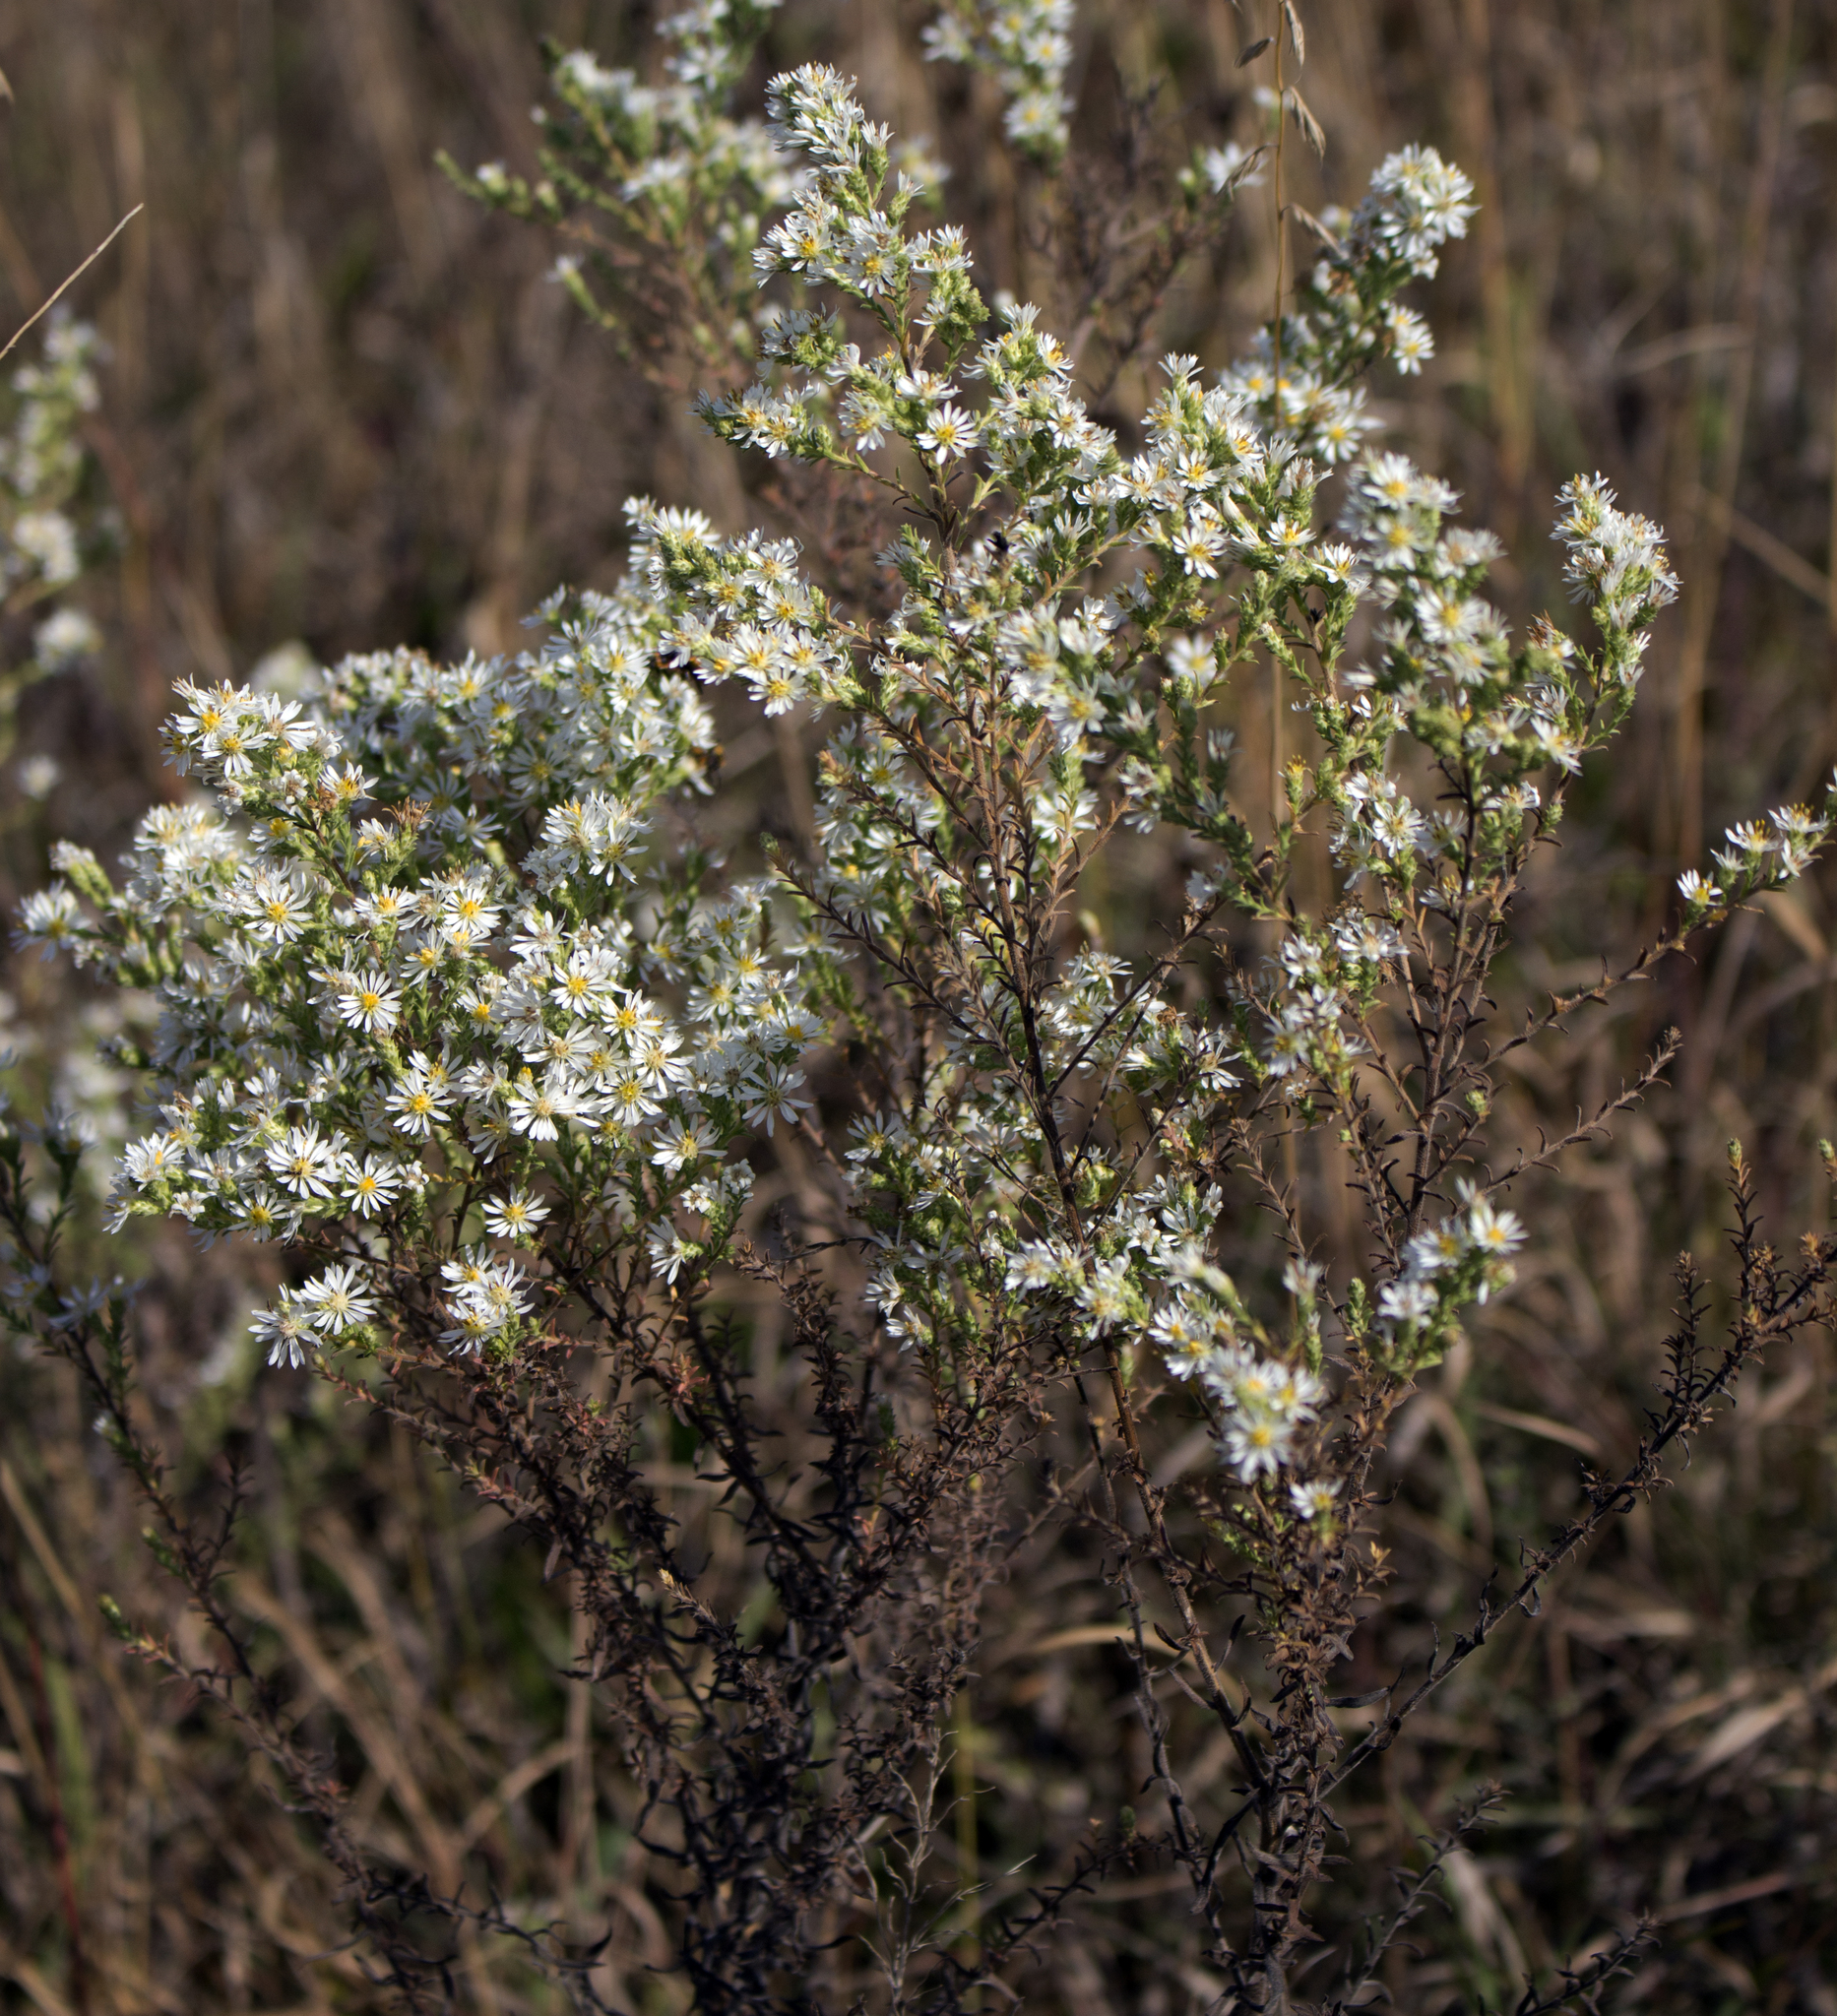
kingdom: Plantae
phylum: Tracheophyta
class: Magnoliopsida
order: Asterales
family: Asteraceae
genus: Symphyotrichum
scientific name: Symphyotrichum ericoides
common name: Heath aster
